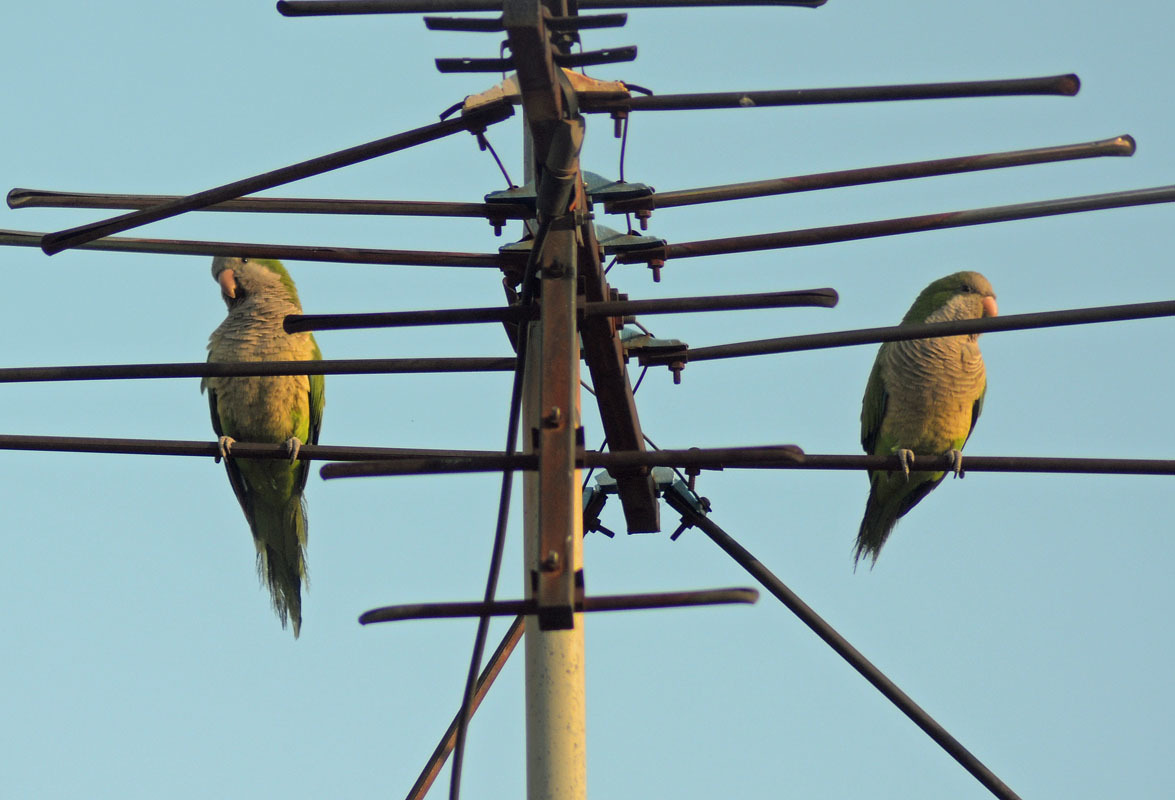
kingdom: Animalia
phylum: Chordata
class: Aves
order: Psittaciformes
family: Psittacidae
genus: Myiopsitta
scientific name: Myiopsitta monachus
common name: Monk parakeet
